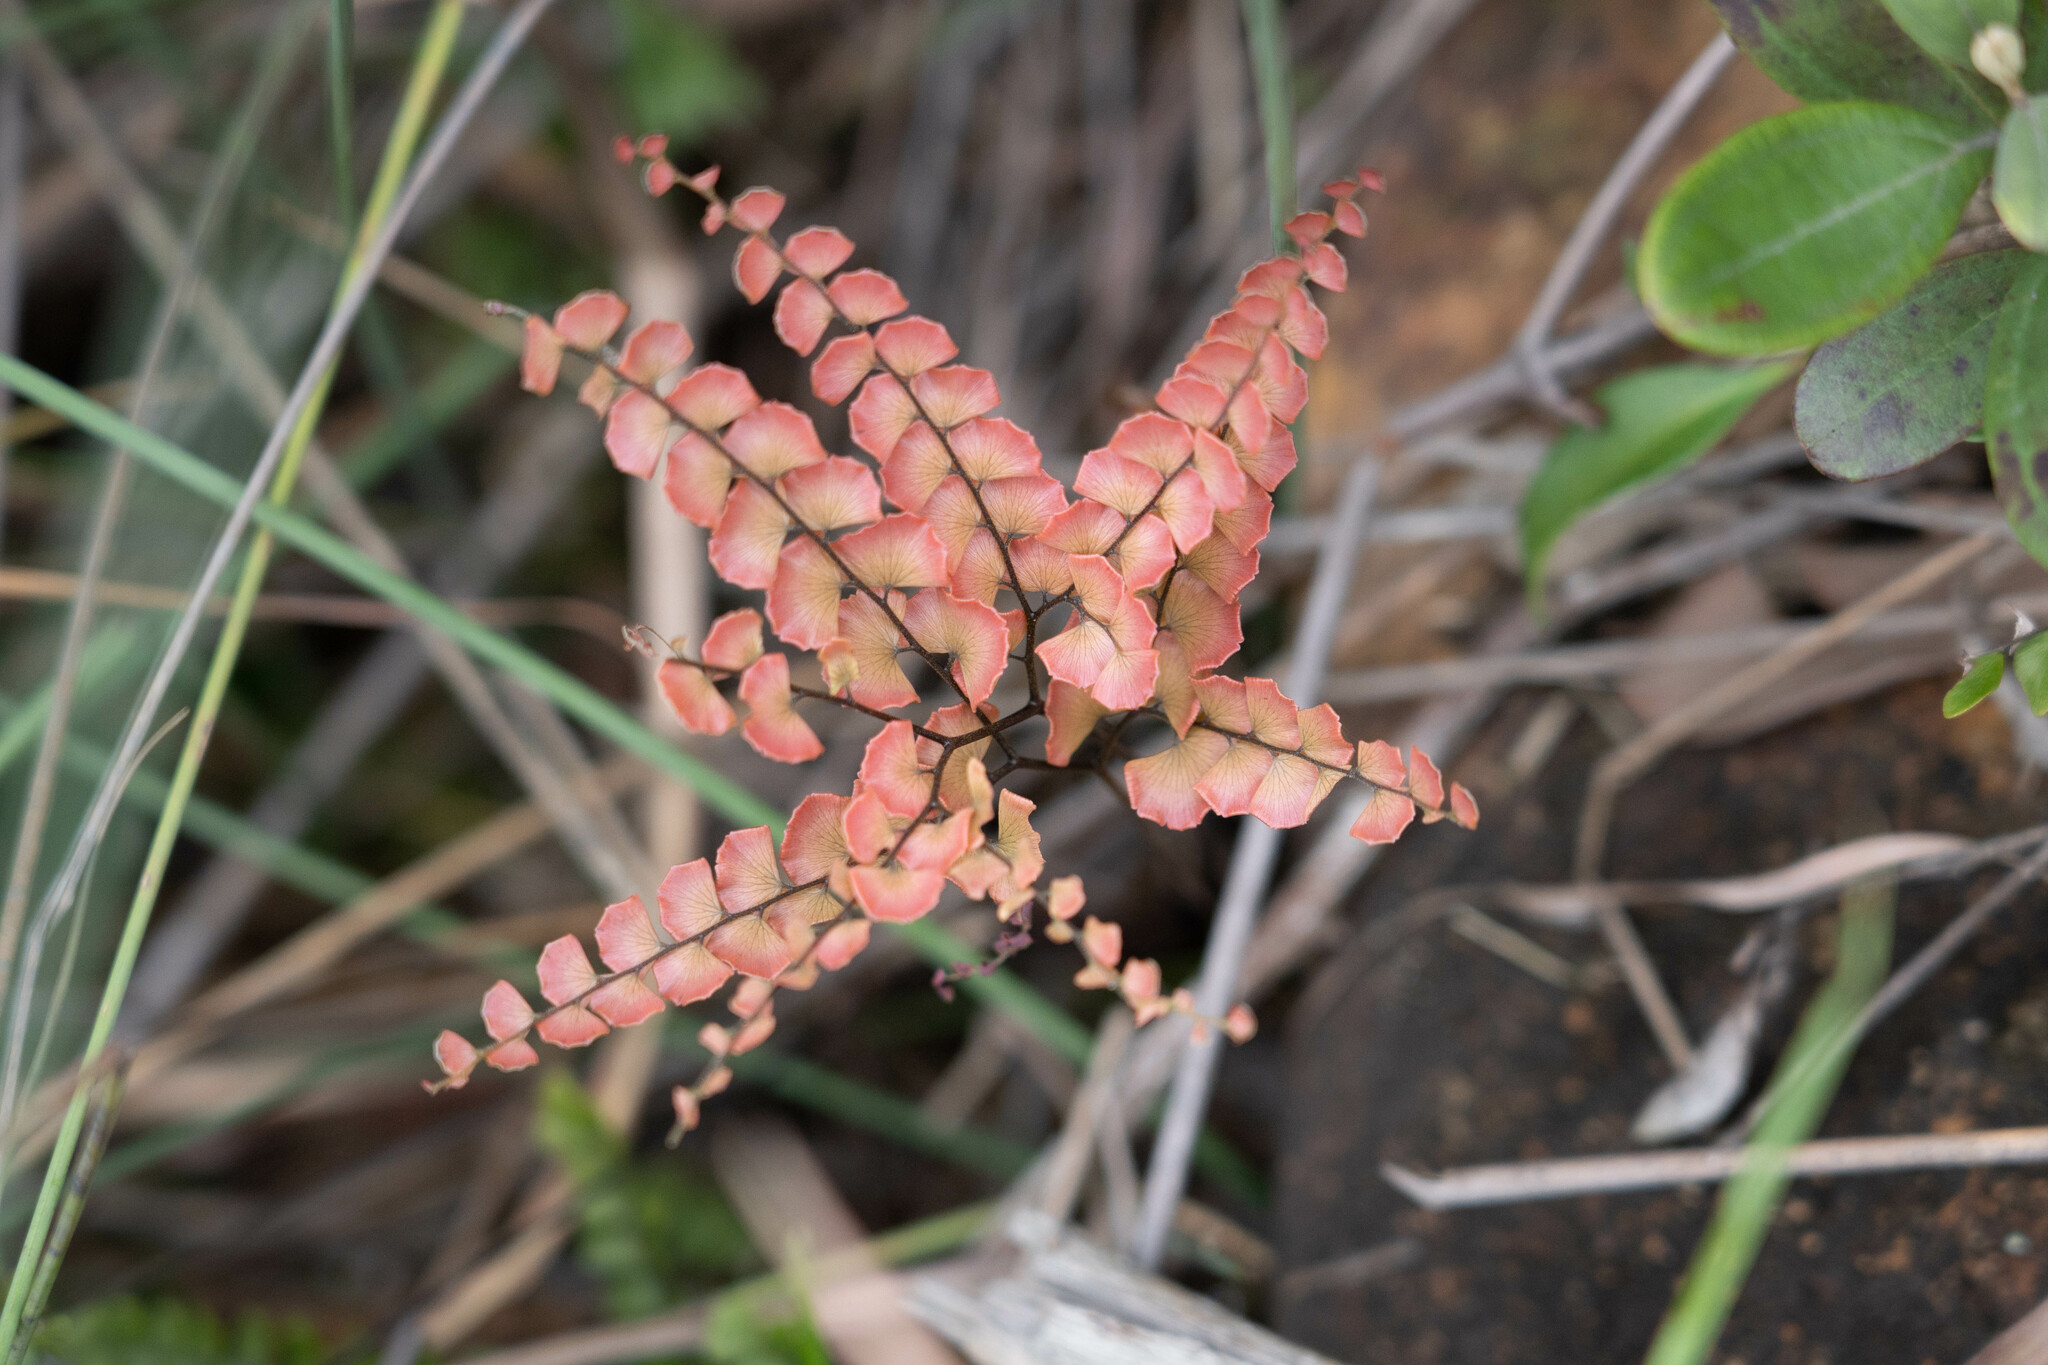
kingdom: Plantae
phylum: Tracheophyta
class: Polypodiopsida
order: Polypodiales
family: Pteridaceae
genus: Adiantum
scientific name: Adiantum flabellulatum
